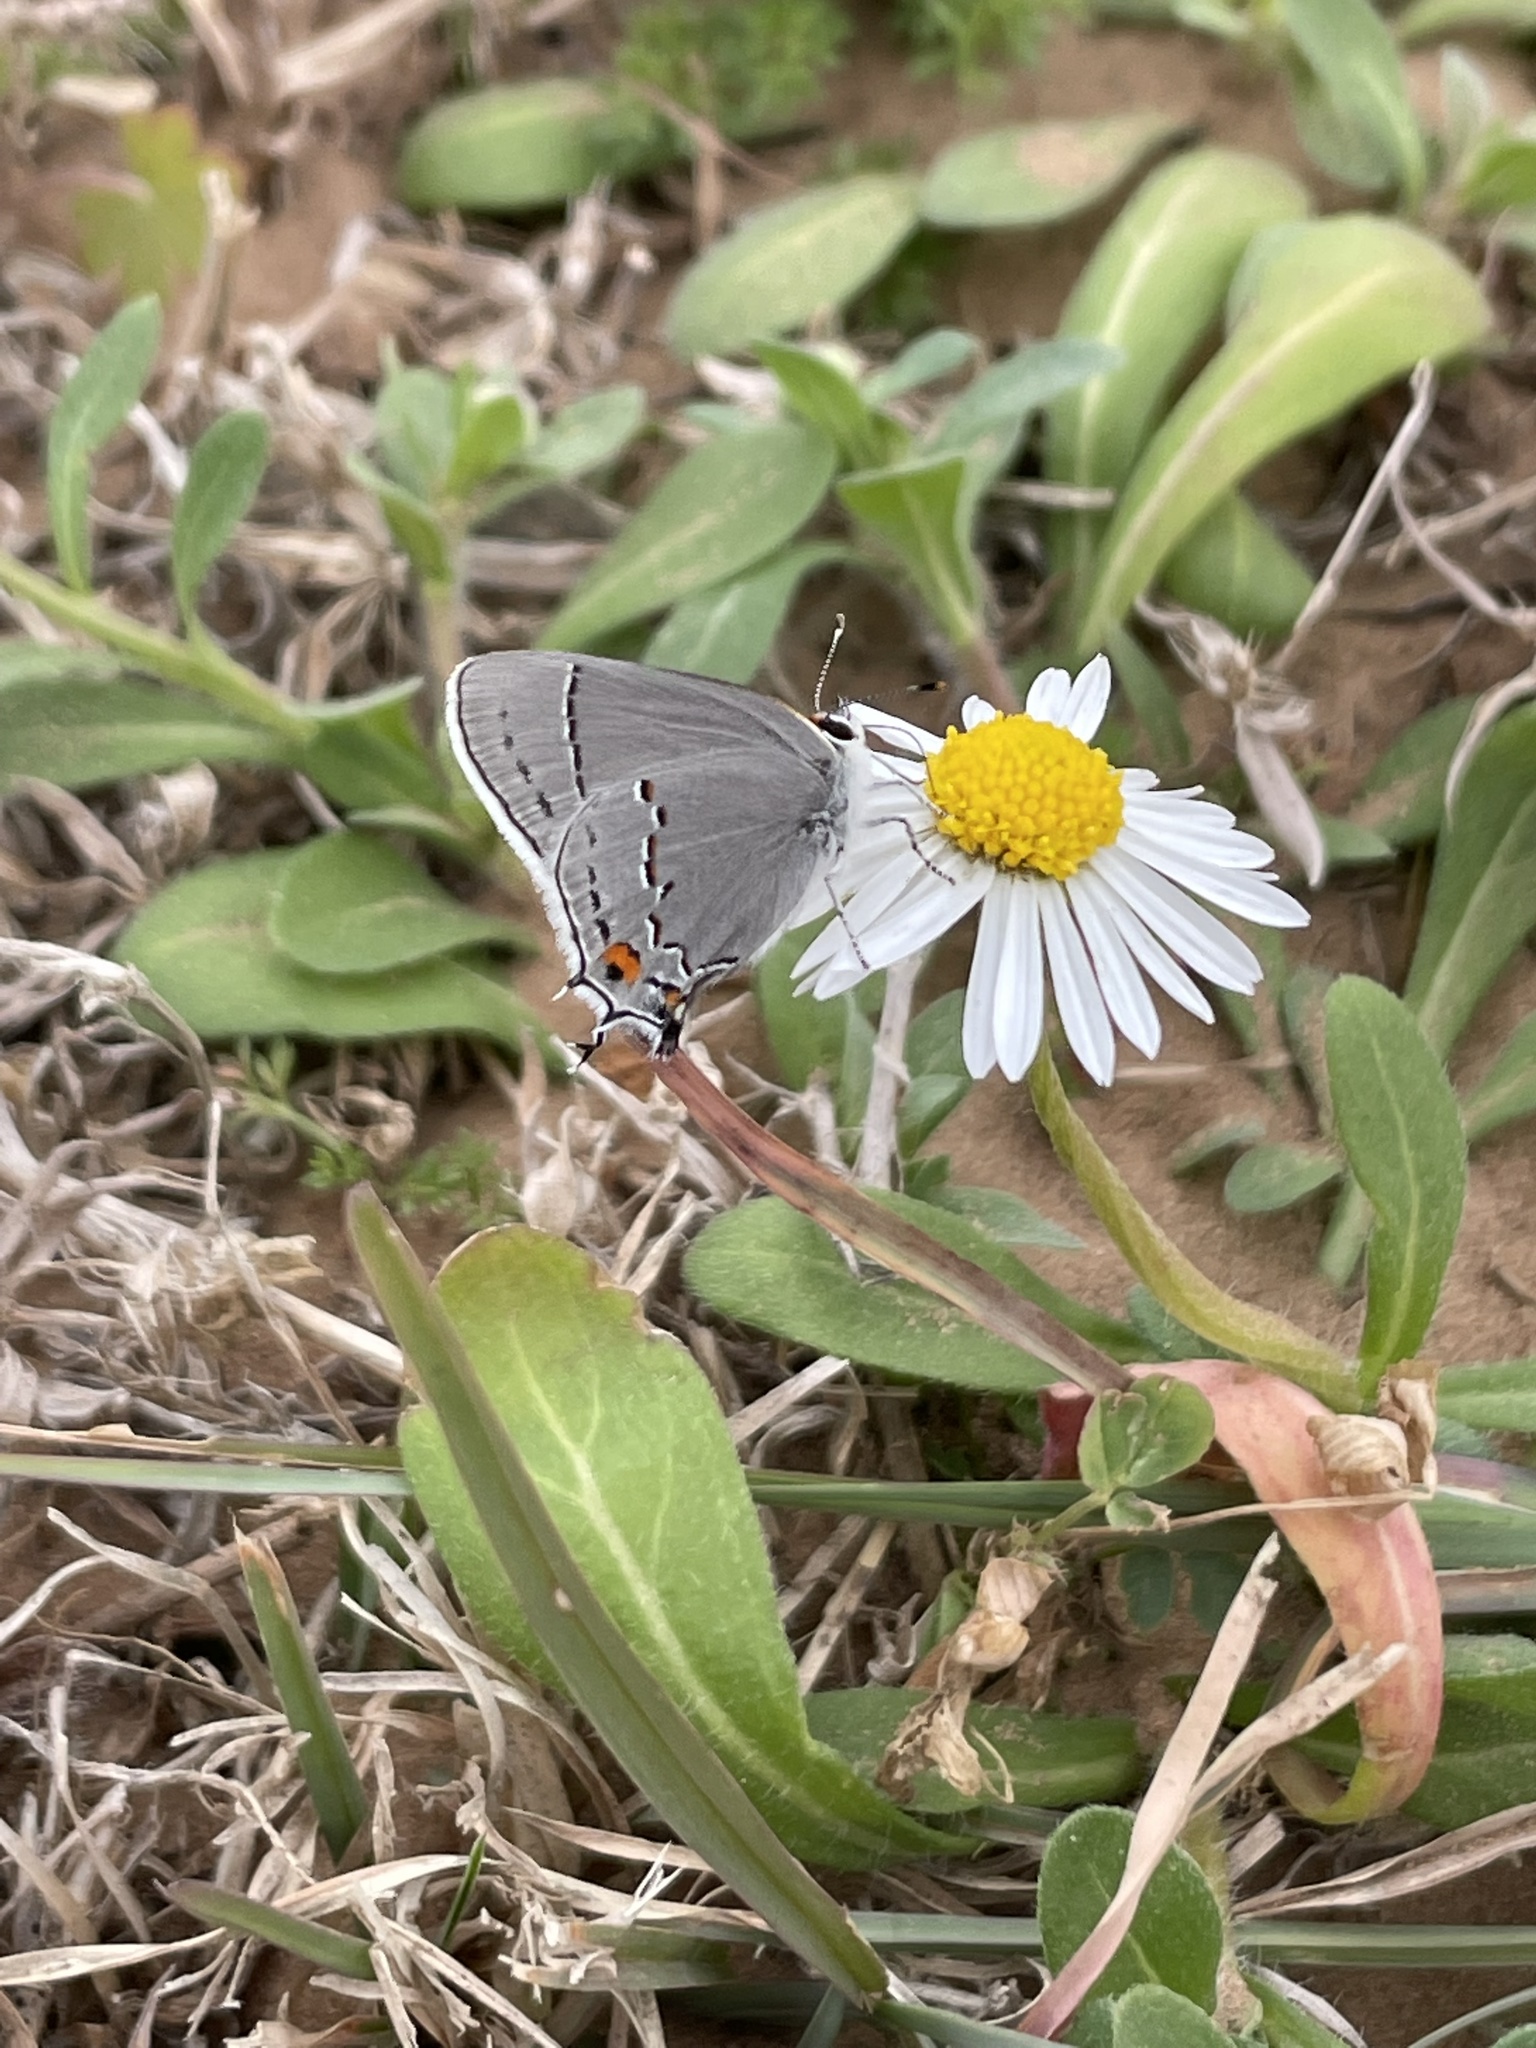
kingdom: Animalia
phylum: Arthropoda
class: Insecta
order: Lepidoptera
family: Lycaenidae
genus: Strymon
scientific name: Strymon melinus
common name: Gray hairstreak
